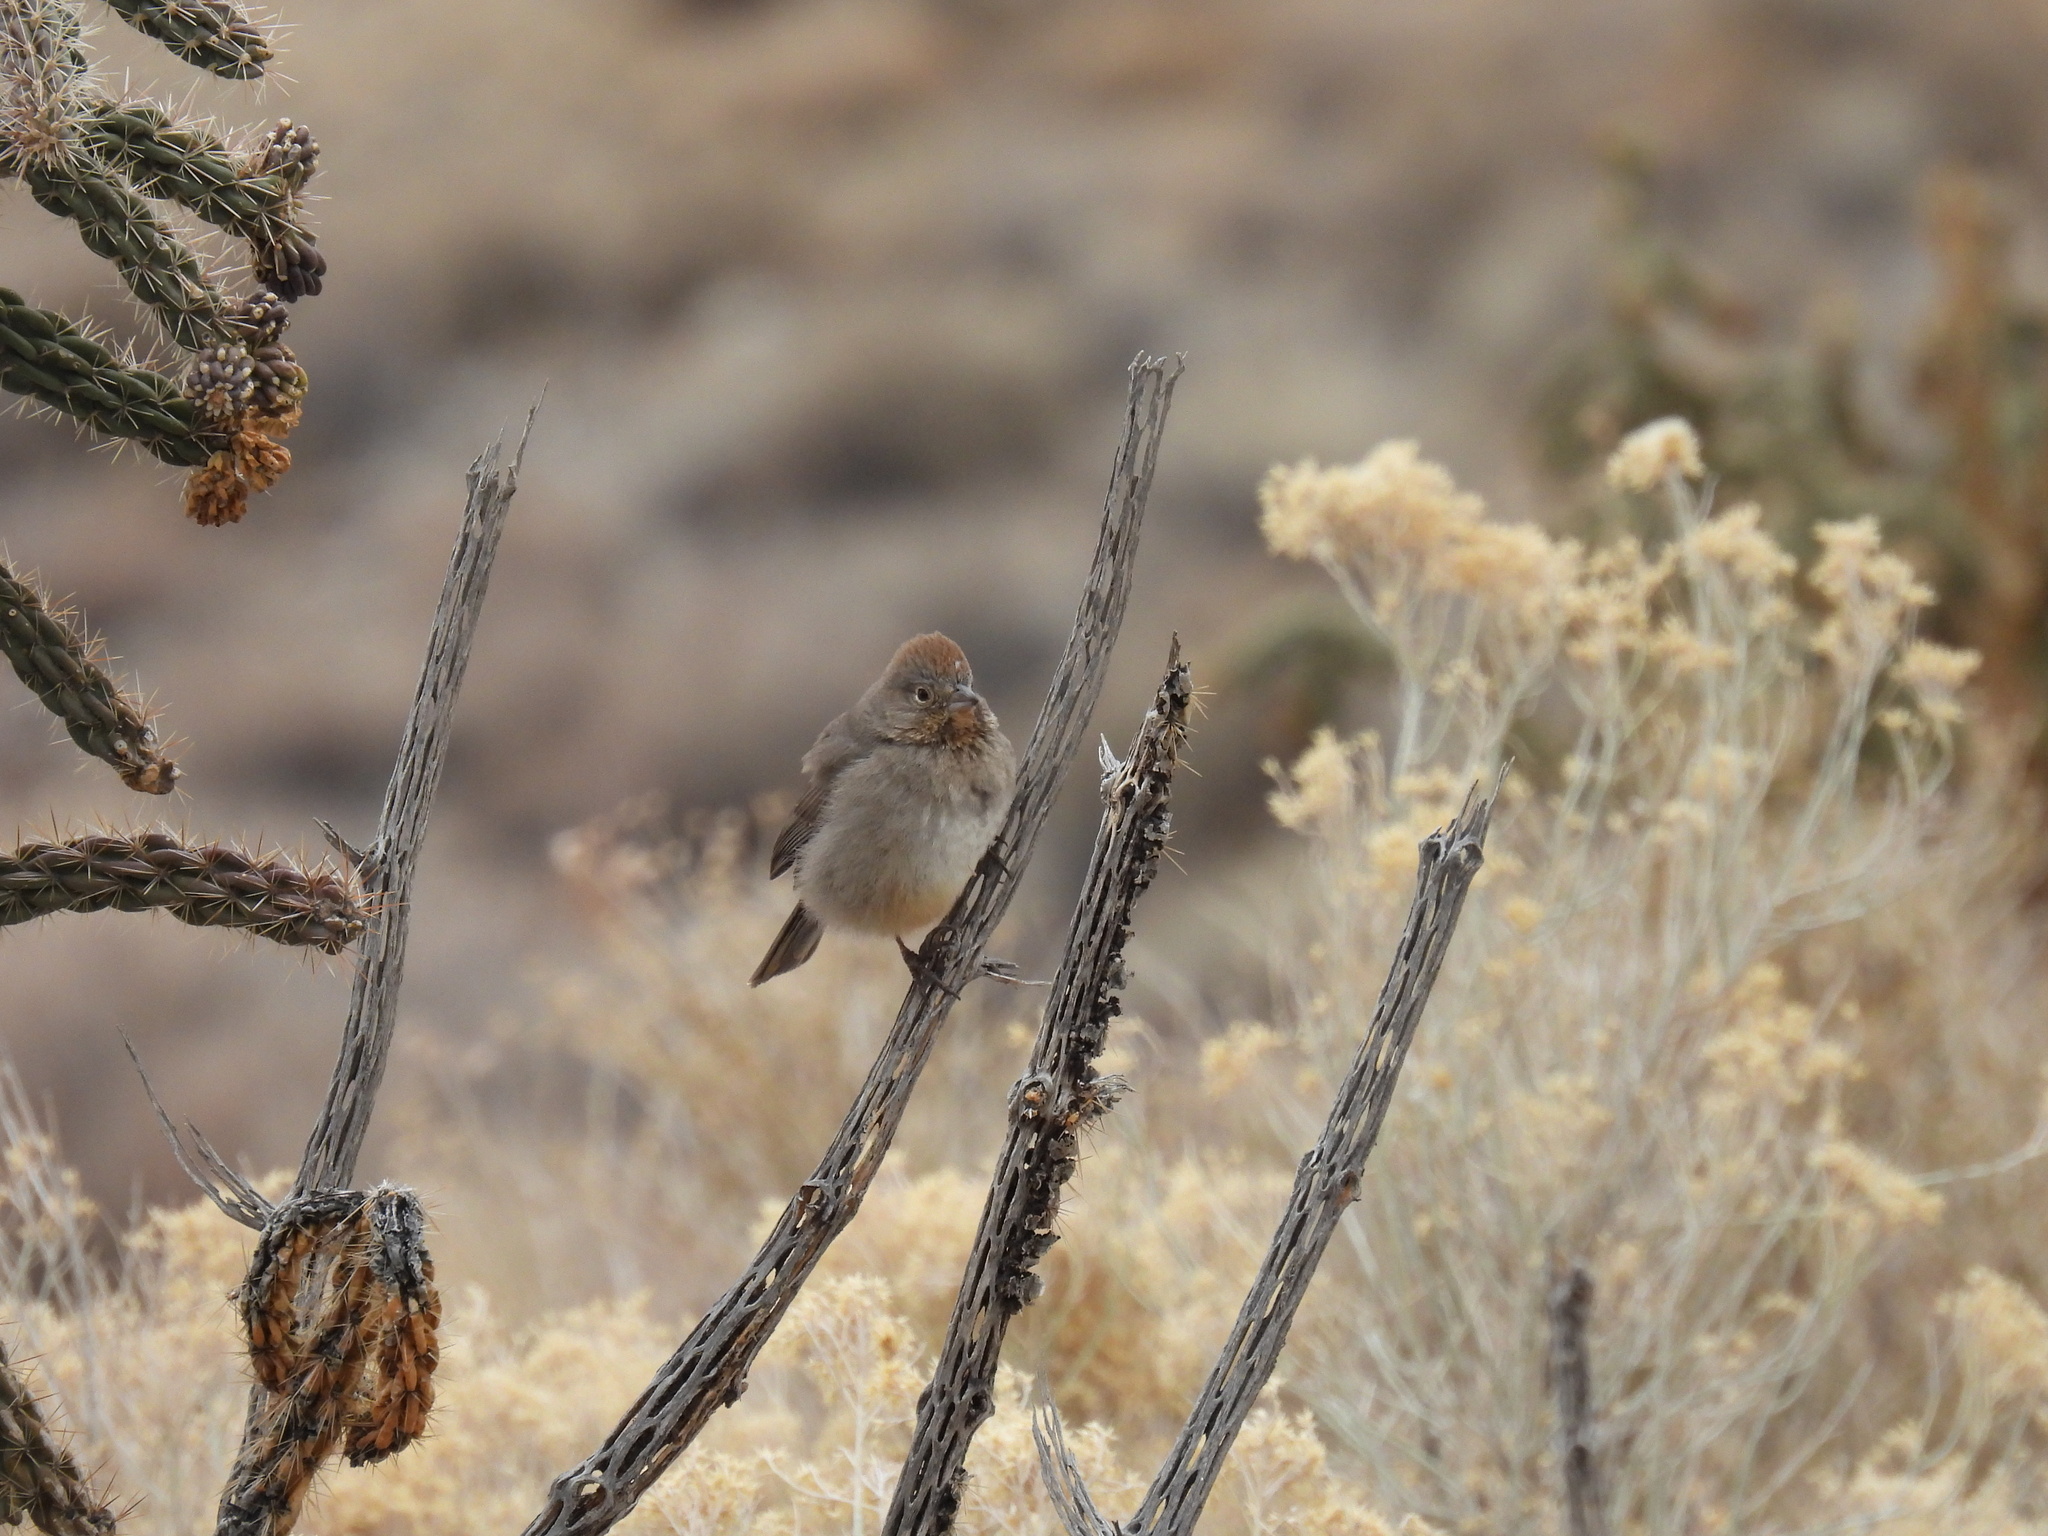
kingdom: Animalia
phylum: Chordata
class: Aves
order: Passeriformes
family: Passerellidae
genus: Melozone
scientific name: Melozone fusca
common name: Canyon towhee
